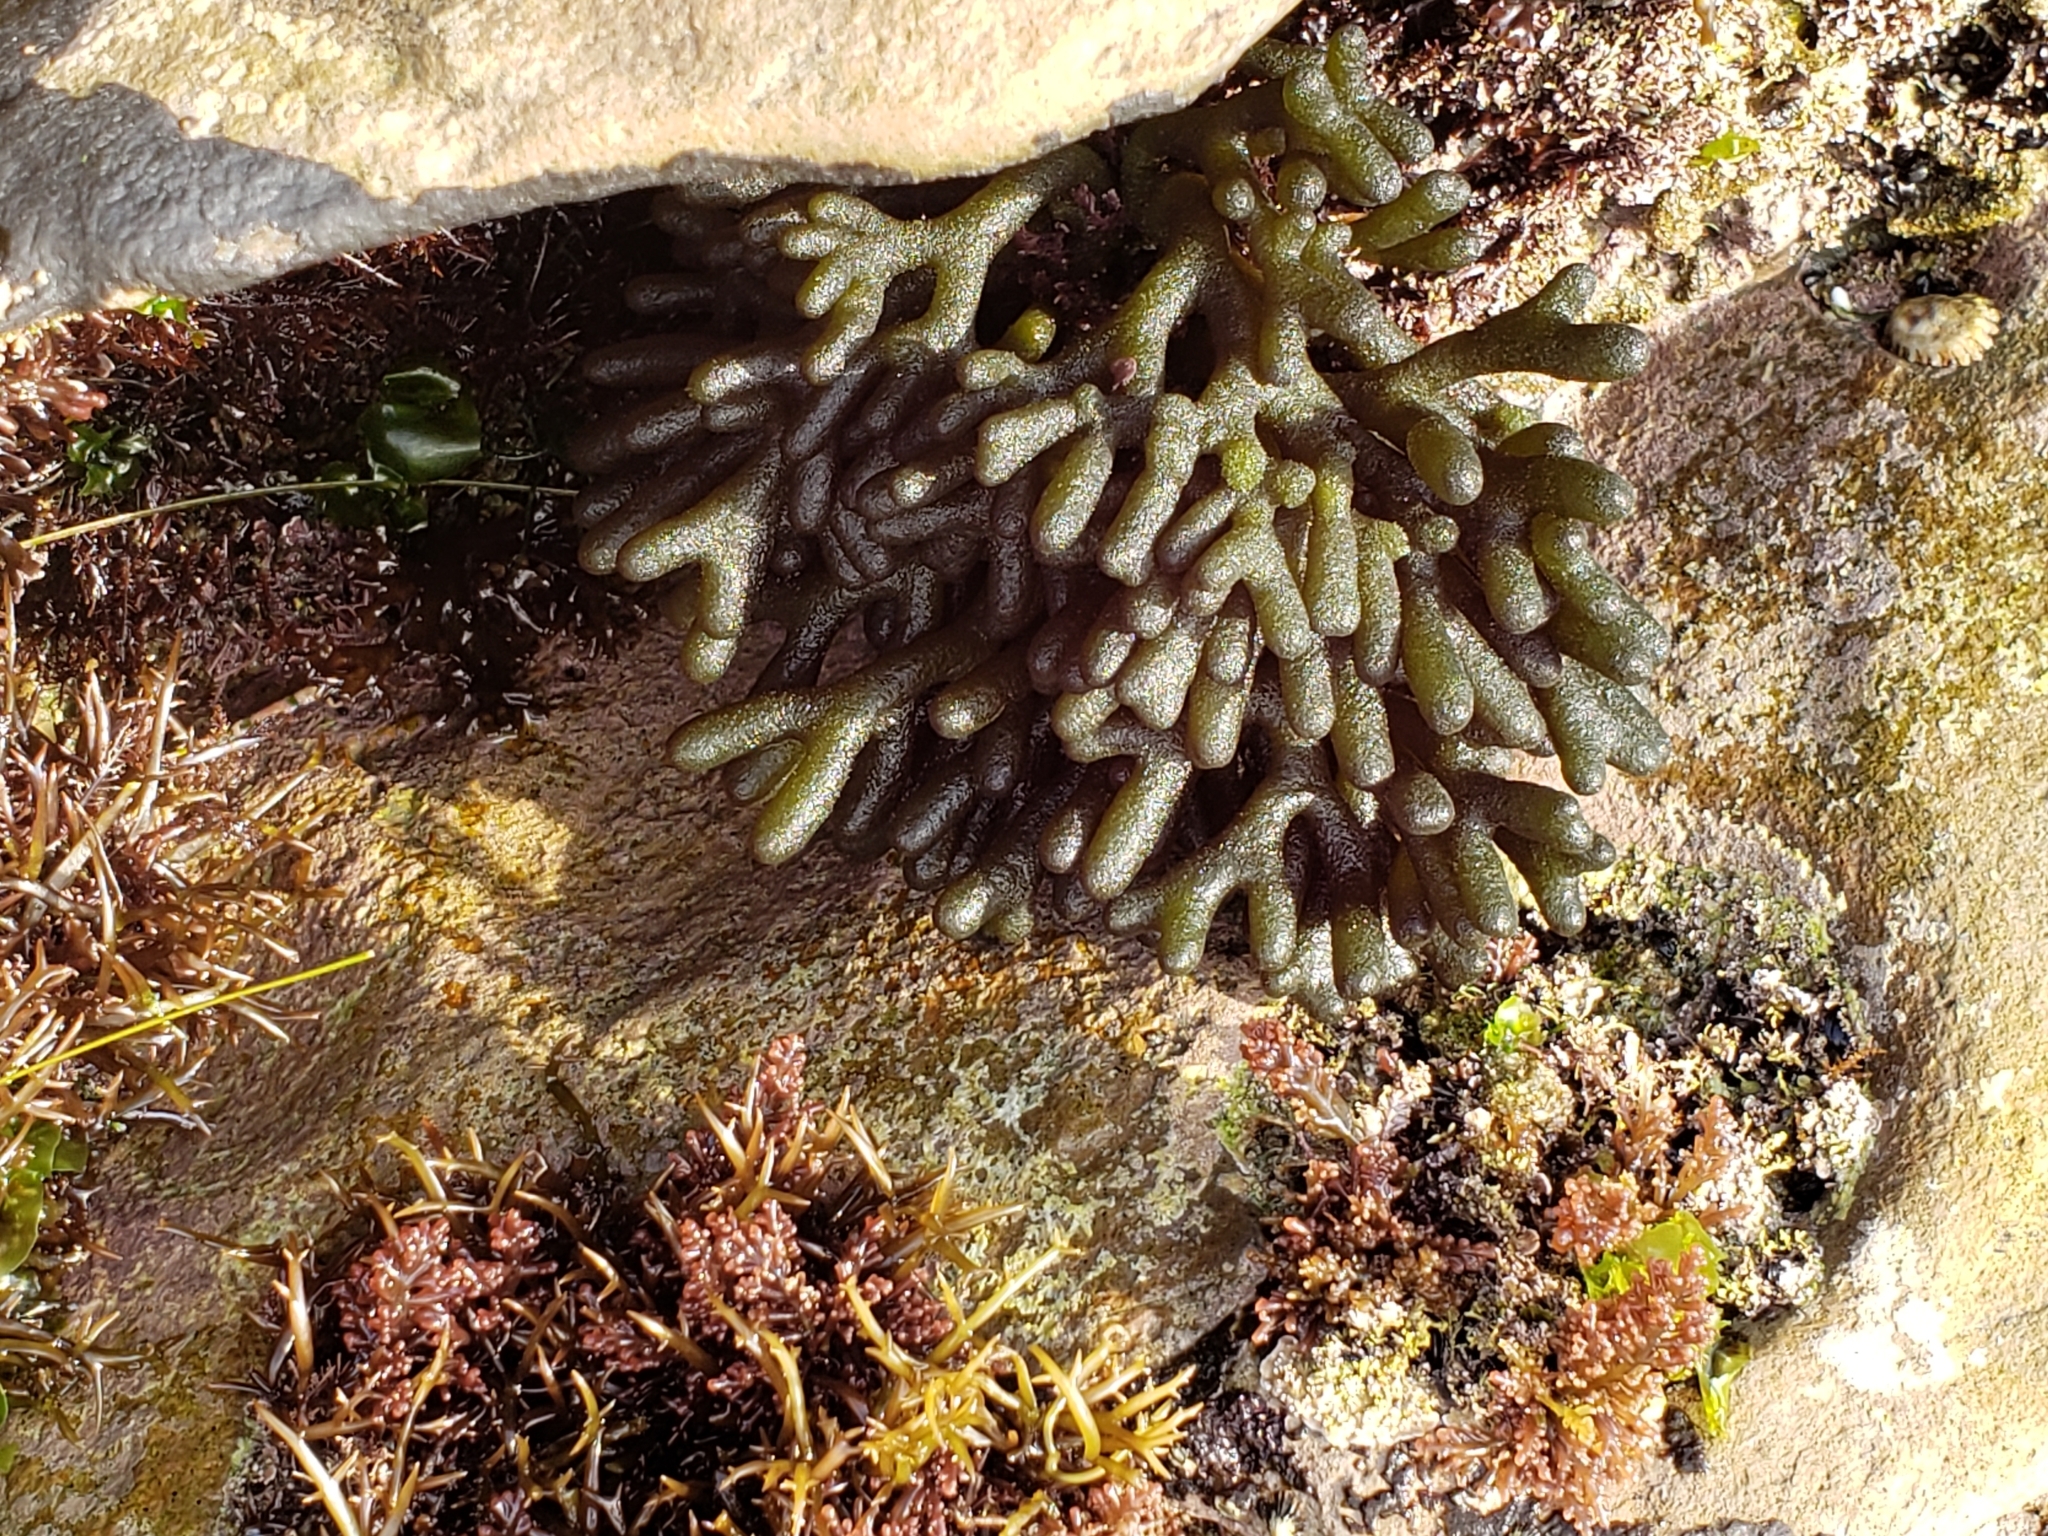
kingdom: Plantae
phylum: Chlorophyta
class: Ulvophyceae
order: Bryopsidales
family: Codiaceae
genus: Codium
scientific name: Codium fragile
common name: Dead man's fingers
